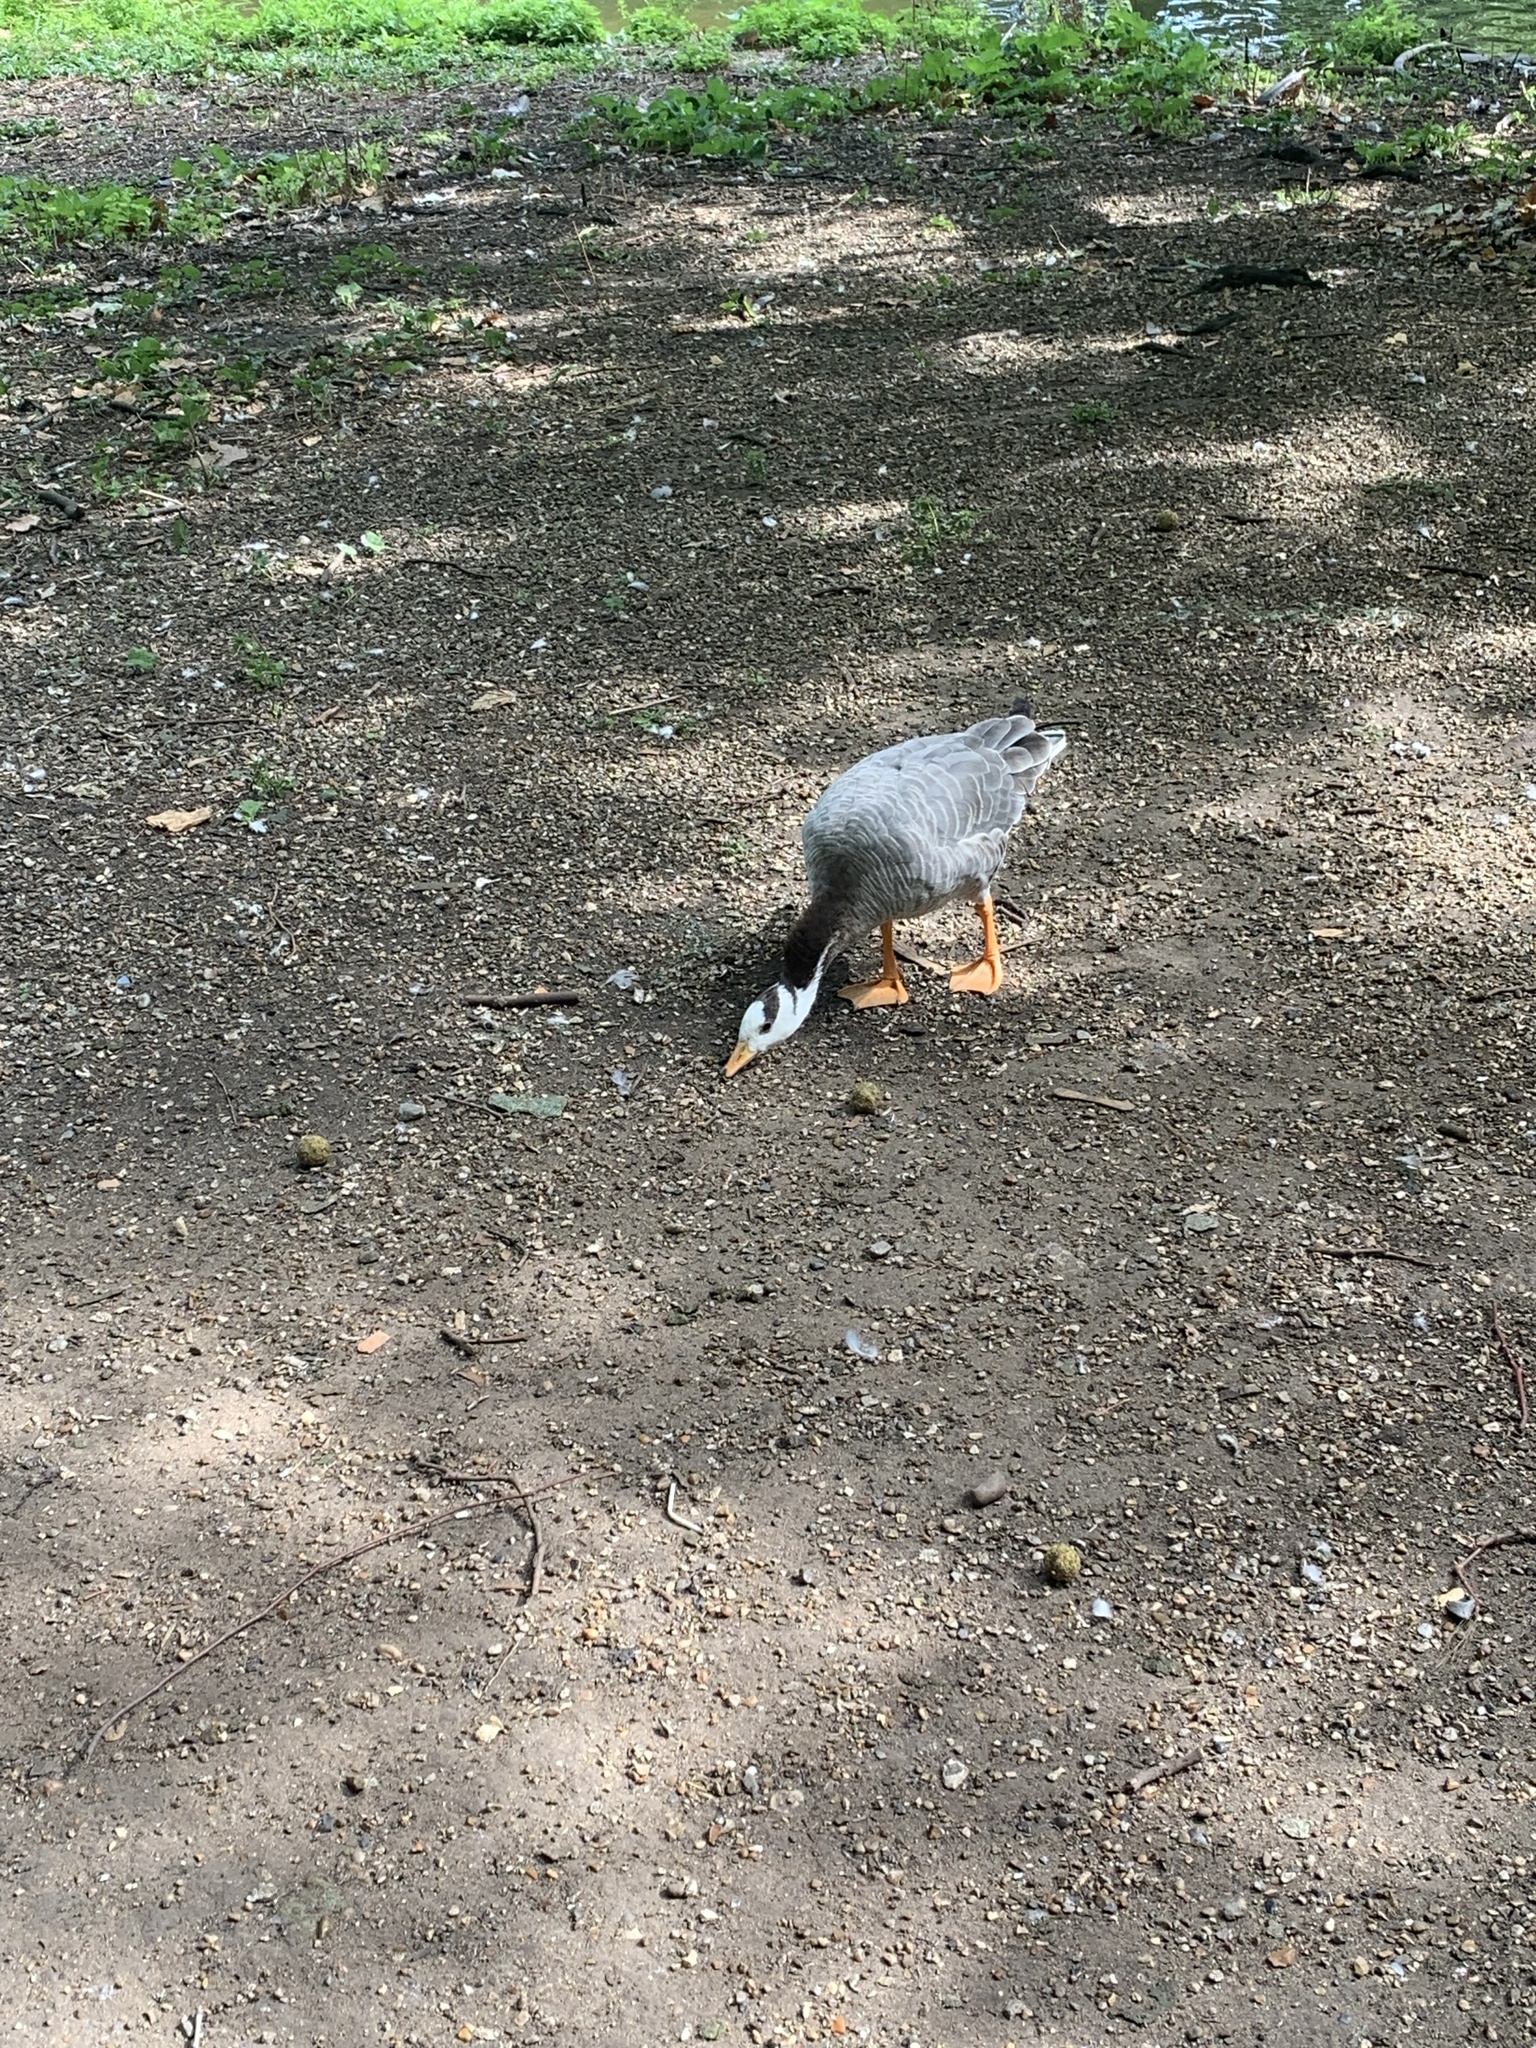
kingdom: Animalia
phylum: Chordata
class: Aves
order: Anseriformes
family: Anatidae
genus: Anser
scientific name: Anser indicus
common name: Bar-headed goose
